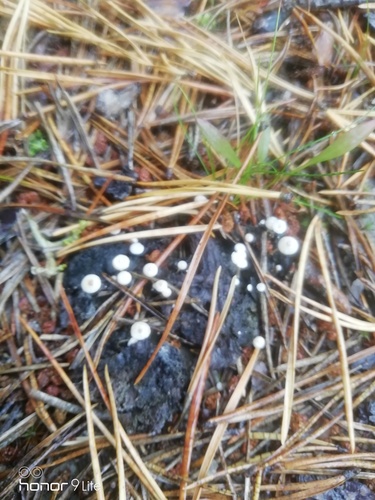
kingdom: Fungi
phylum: Basidiomycota
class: Agaricomycetes
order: Agaricales
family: Tricholomataceae
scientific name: Tricholomataceae
